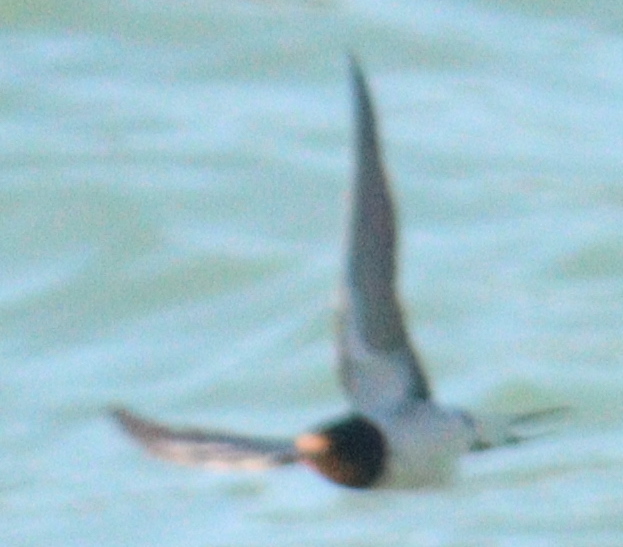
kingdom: Animalia
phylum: Chordata
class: Aves
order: Passeriformes
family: Hirundinidae
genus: Hirundo
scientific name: Hirundo rustica
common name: Barn swallow
